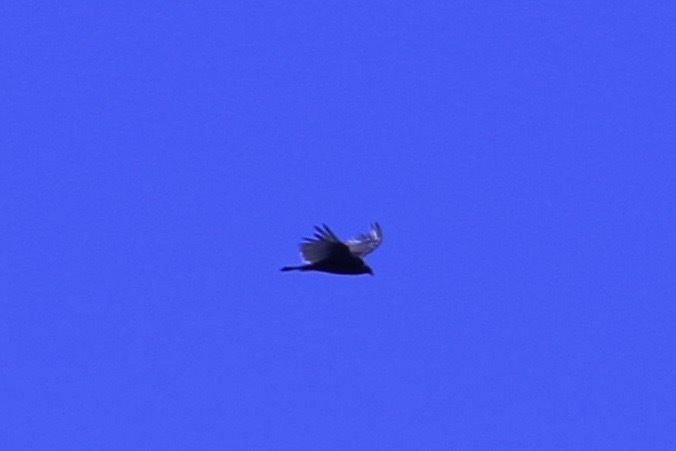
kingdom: Animalia
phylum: Chordata
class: Aves
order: Accipitriformes
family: Cathartidae
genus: Cathartes
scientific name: Cathartes aura
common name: Turkey vulture
